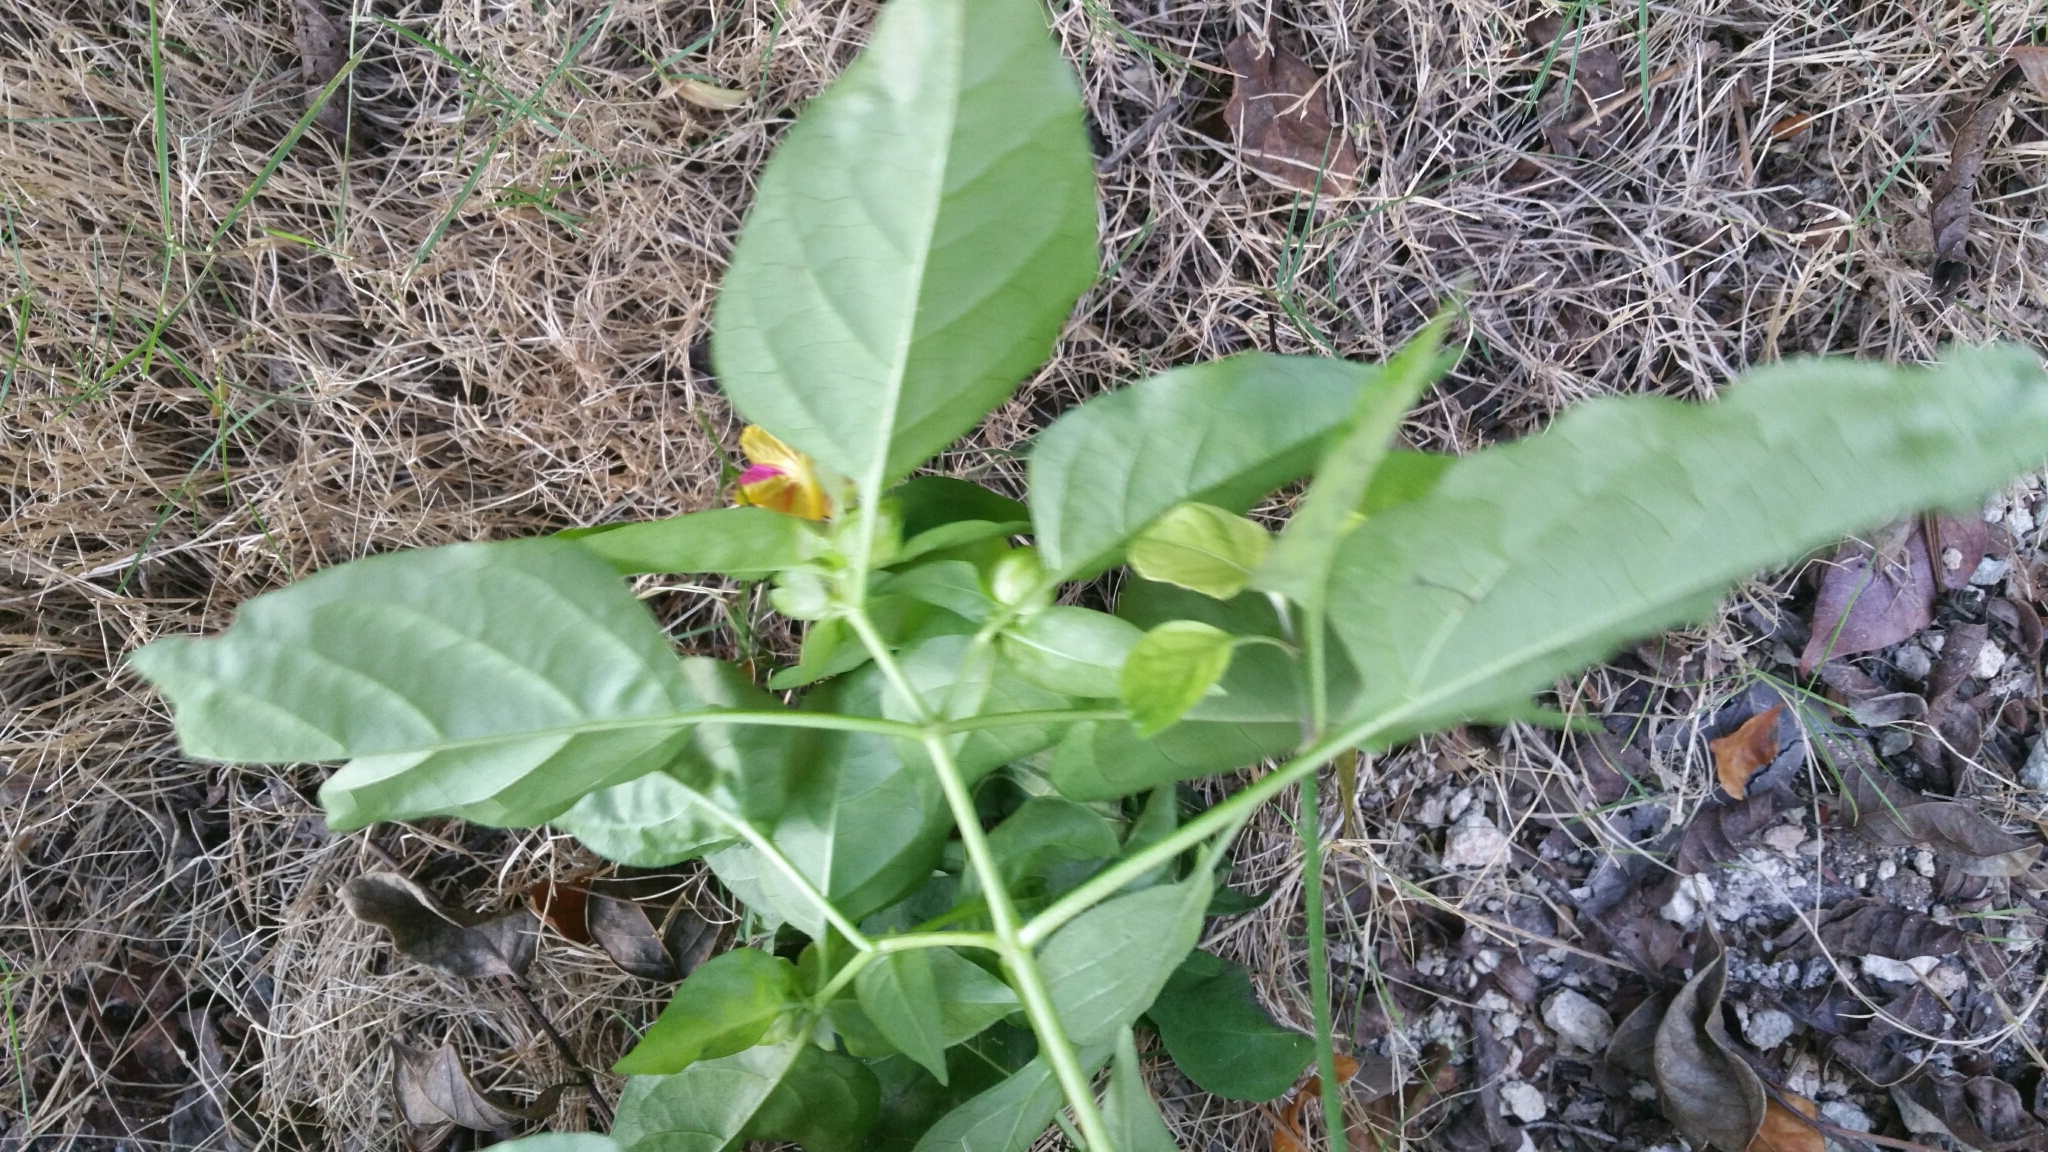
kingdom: Plantae
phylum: Tracheophyta
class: Magnoliopsida
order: Caryophyllales
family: Nyctaginaceae
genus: Mirabilis
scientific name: Mirabilis jalapa
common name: Marvel-of-peru
